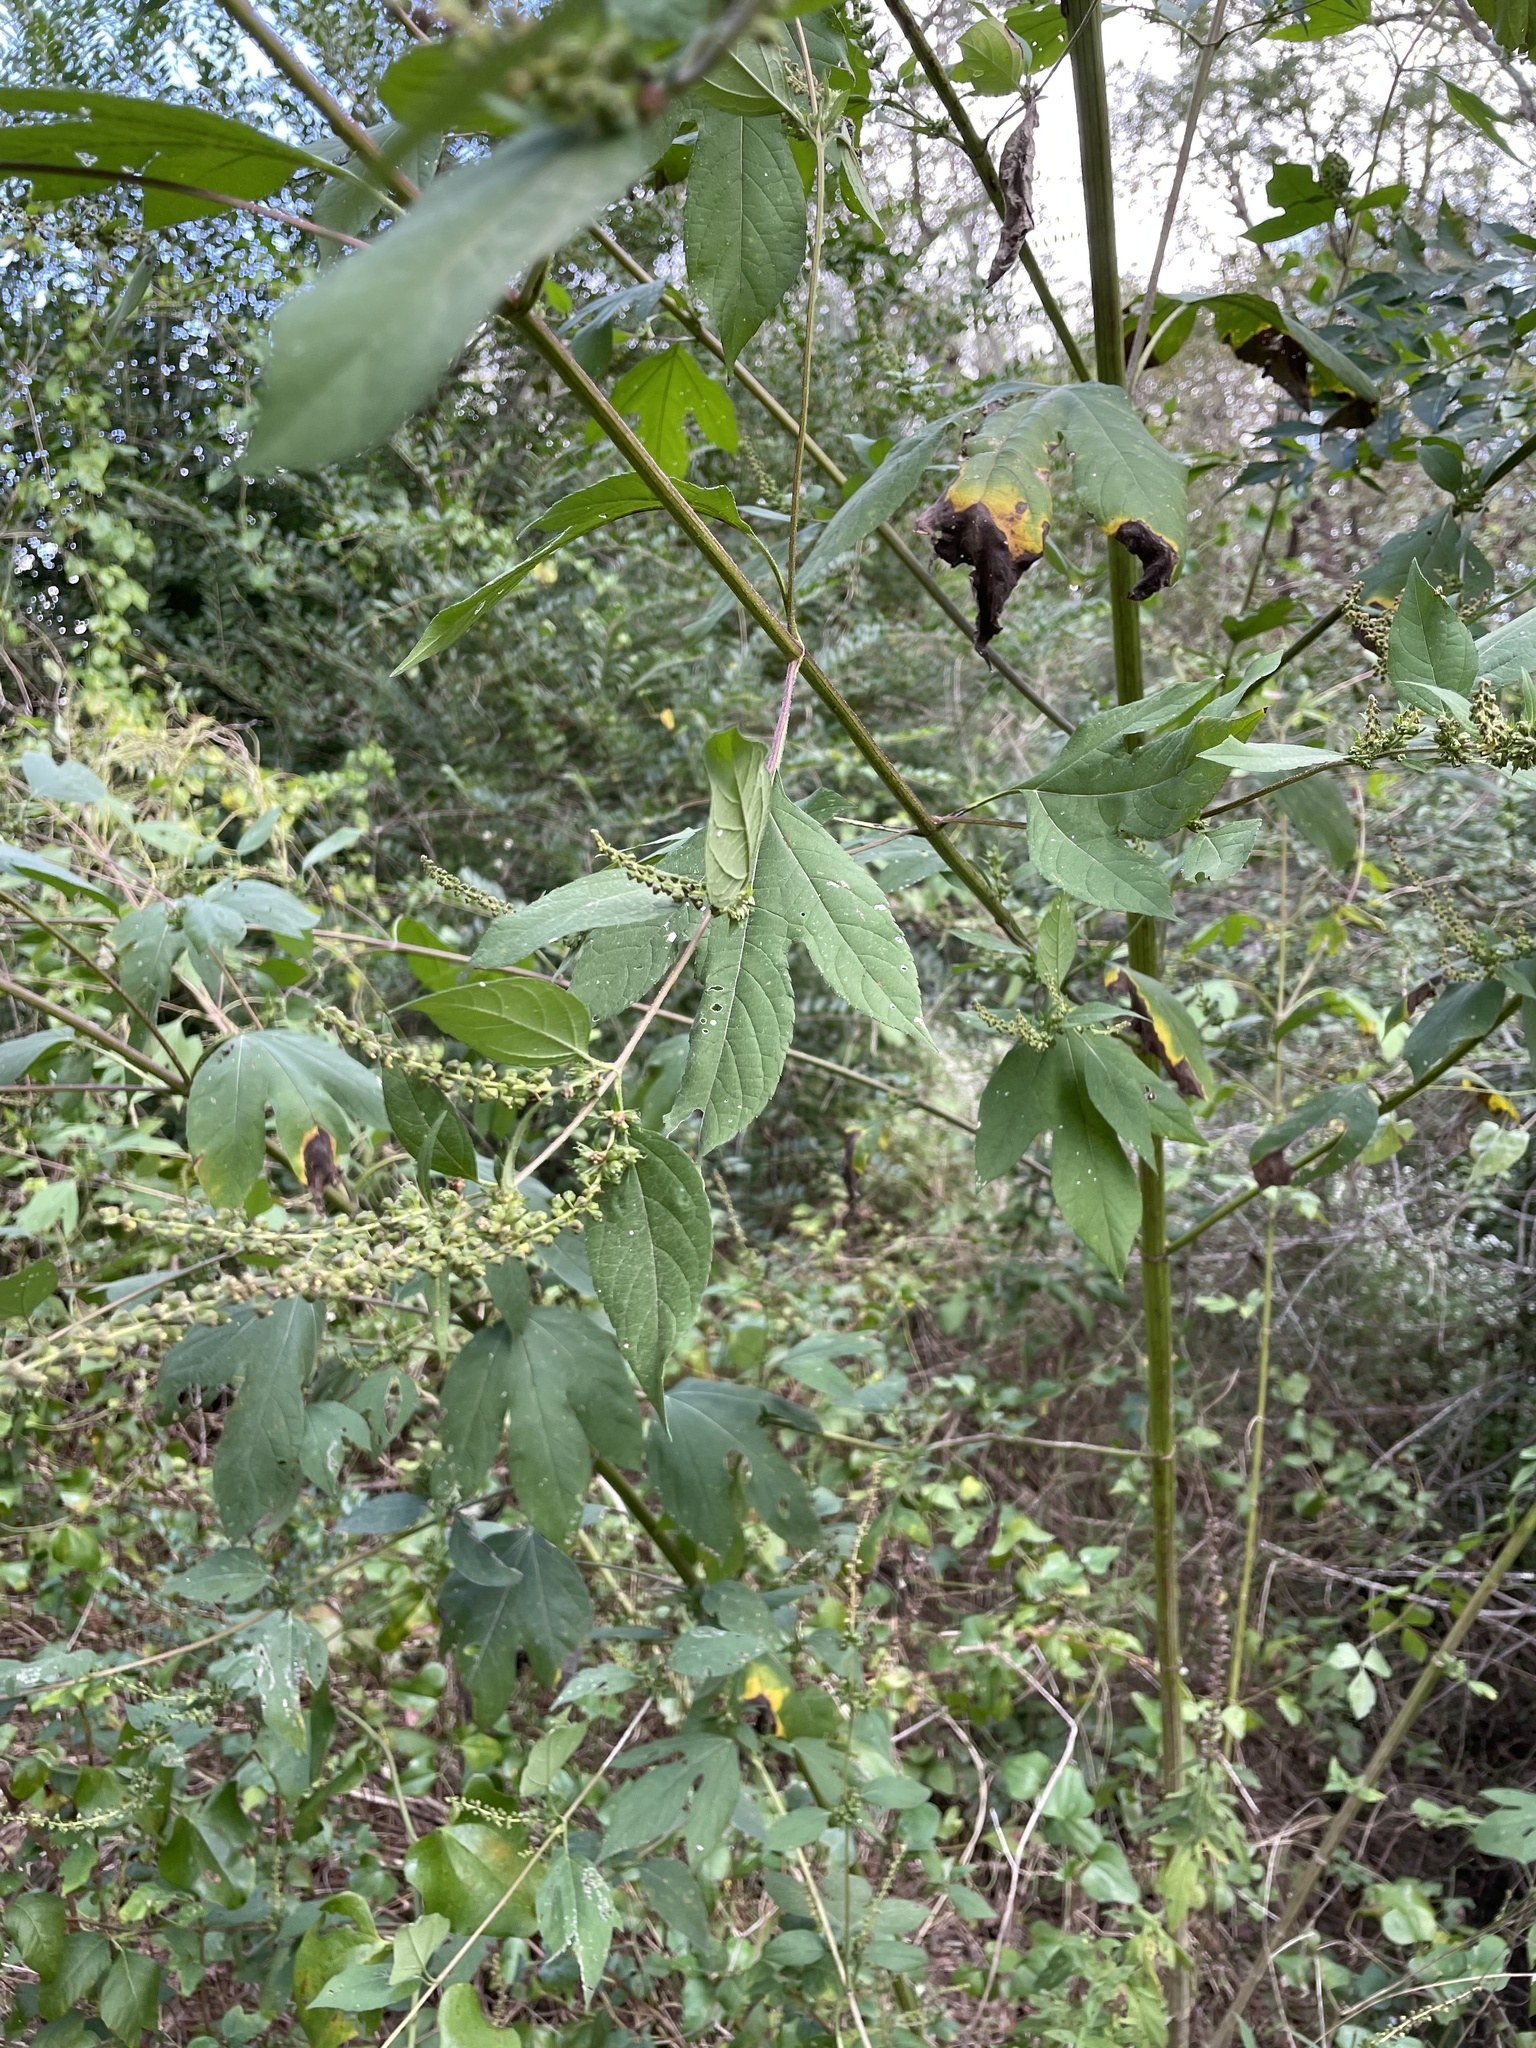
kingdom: Plantae
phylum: Tracheophyta
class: Magnoliopsida
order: Asterales
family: Asteraceae
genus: Ambrosia
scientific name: Ambrosia trifida
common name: Giant ragweed
